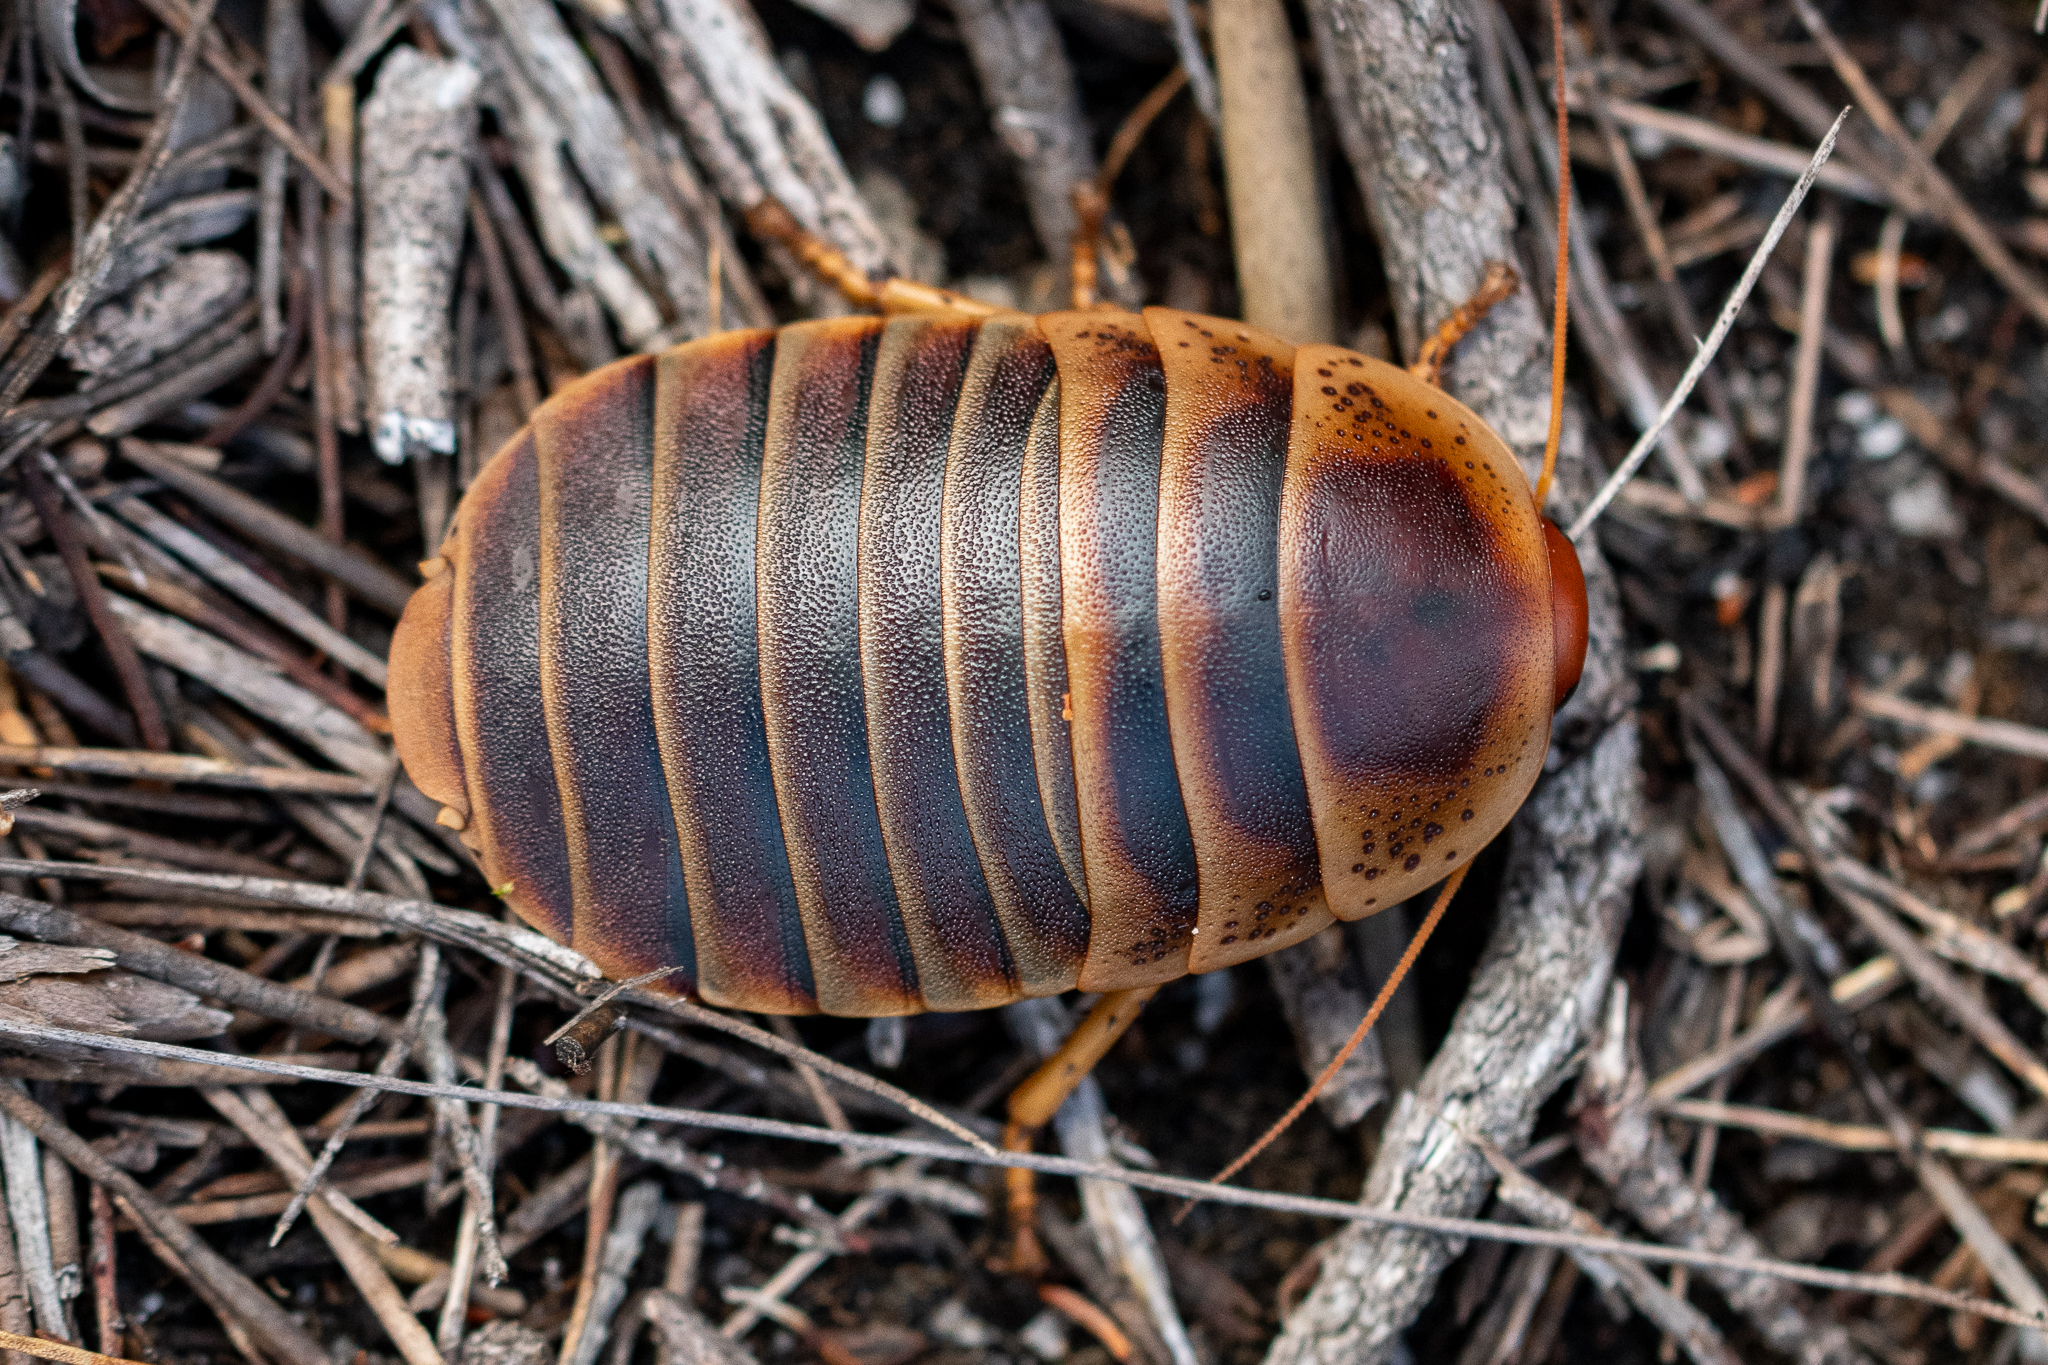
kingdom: Animalia
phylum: Arthropoda
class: Insecta
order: Blattodea
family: Blaberidae
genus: Aptera
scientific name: Aptera fusca
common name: Cape mountain cockroach
